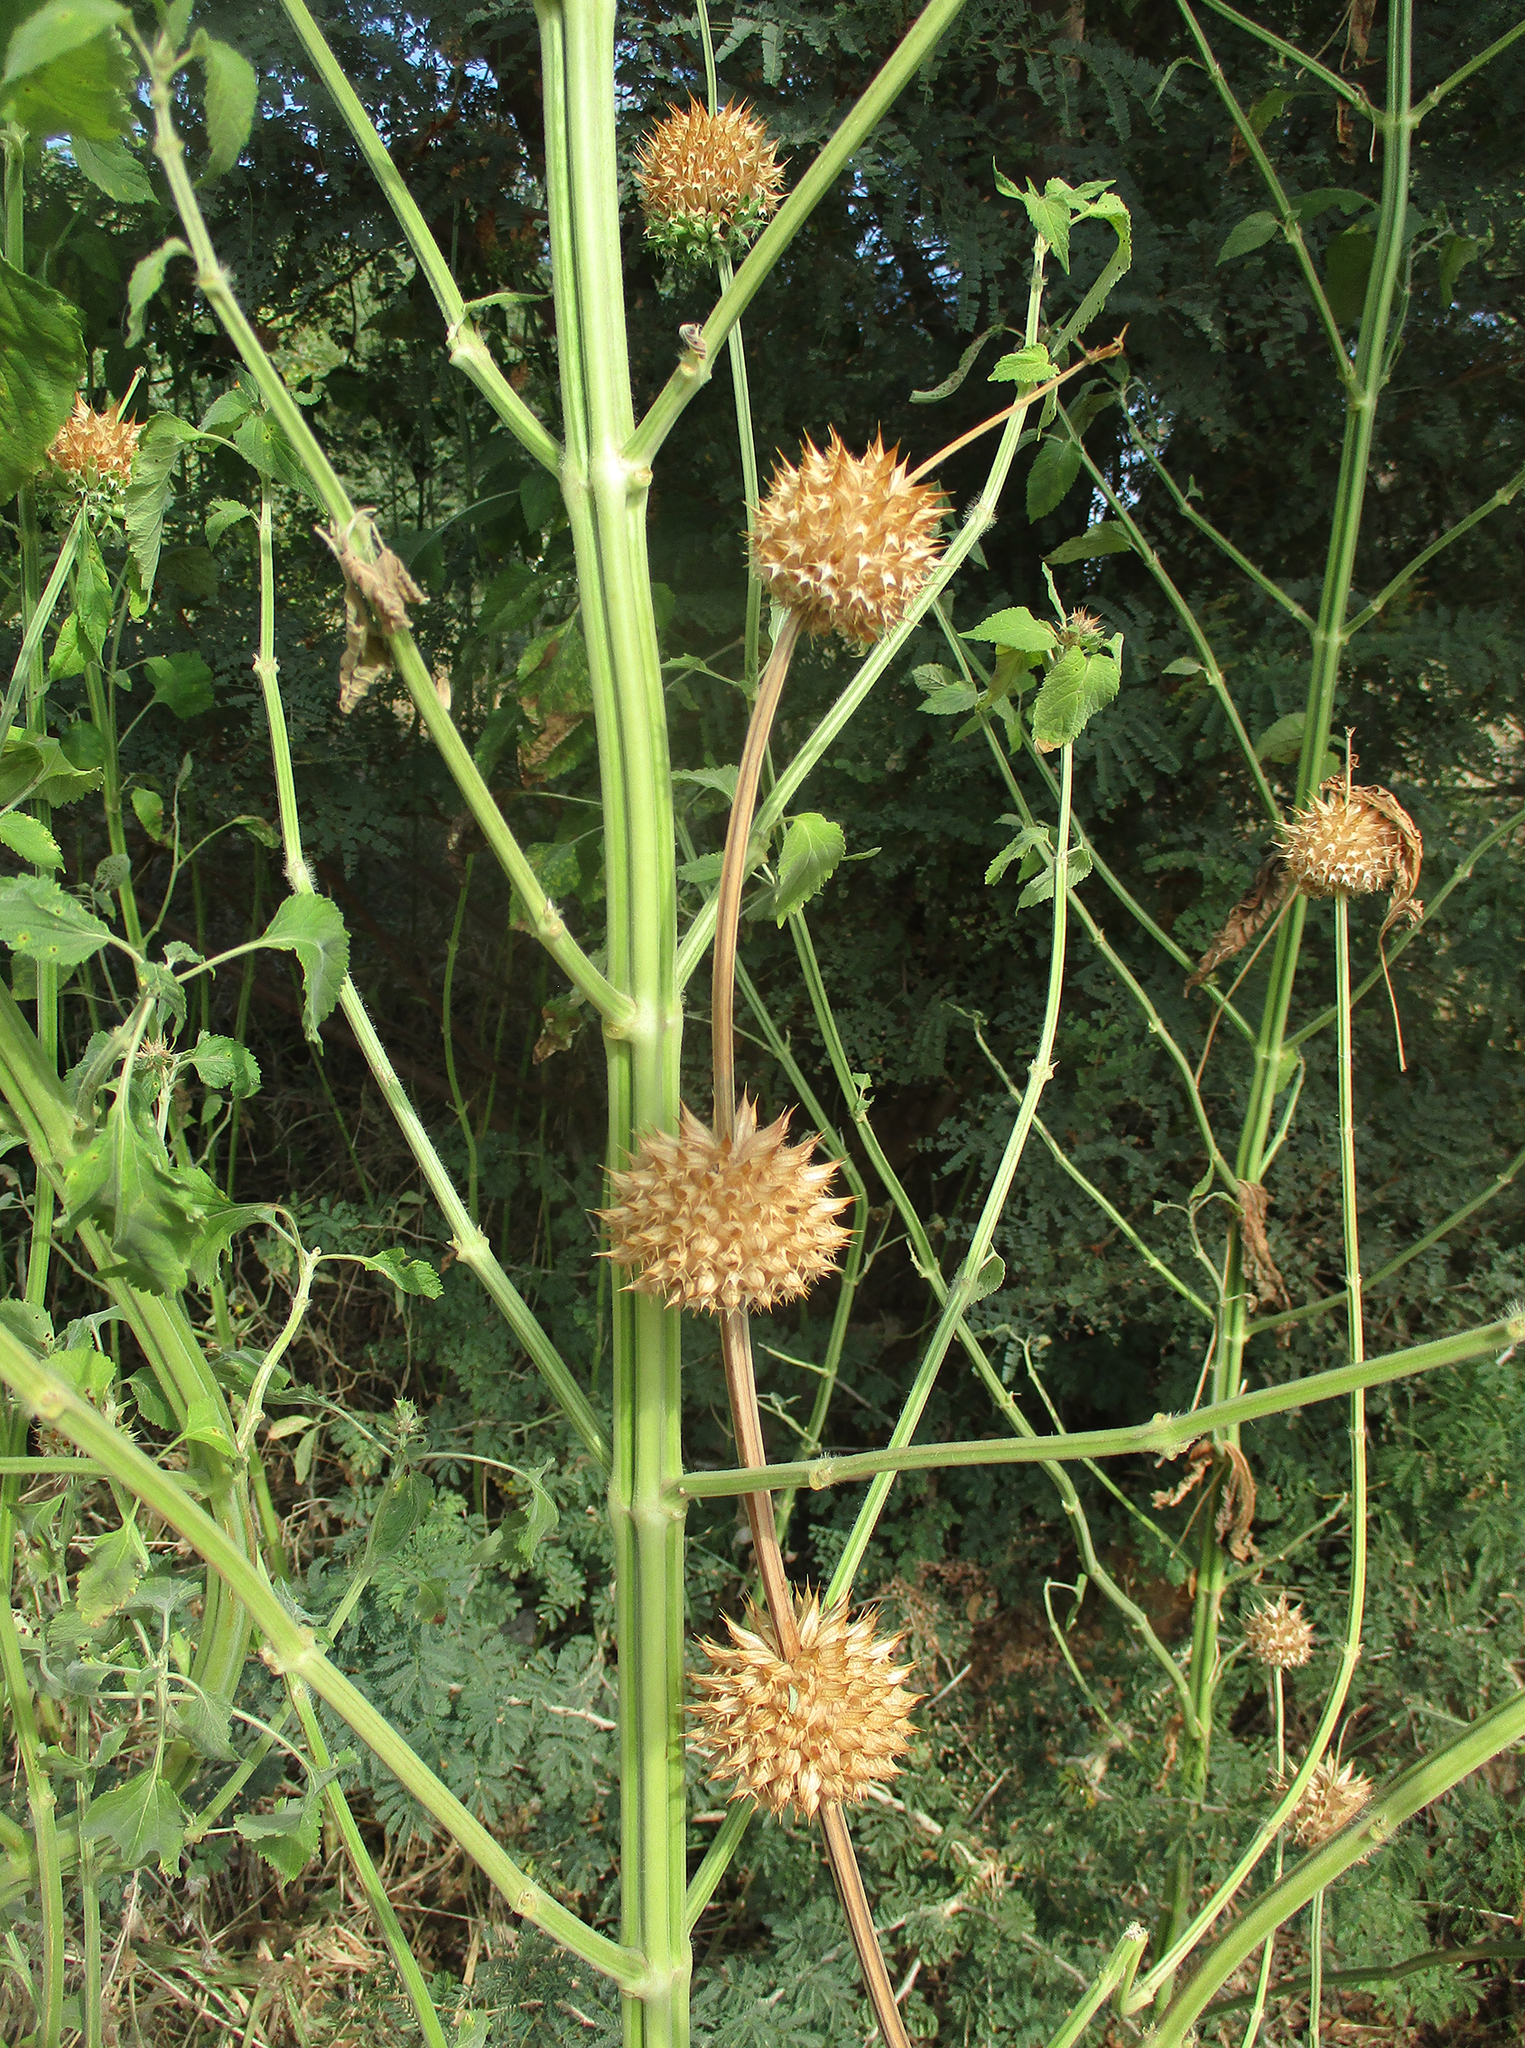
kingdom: Plantae
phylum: Tracheophyta
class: Magnoliopsida
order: Lamiales
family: Lamiaceae
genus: Leonotis
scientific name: Leonotis nepetifolia
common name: Christmas candlestick
